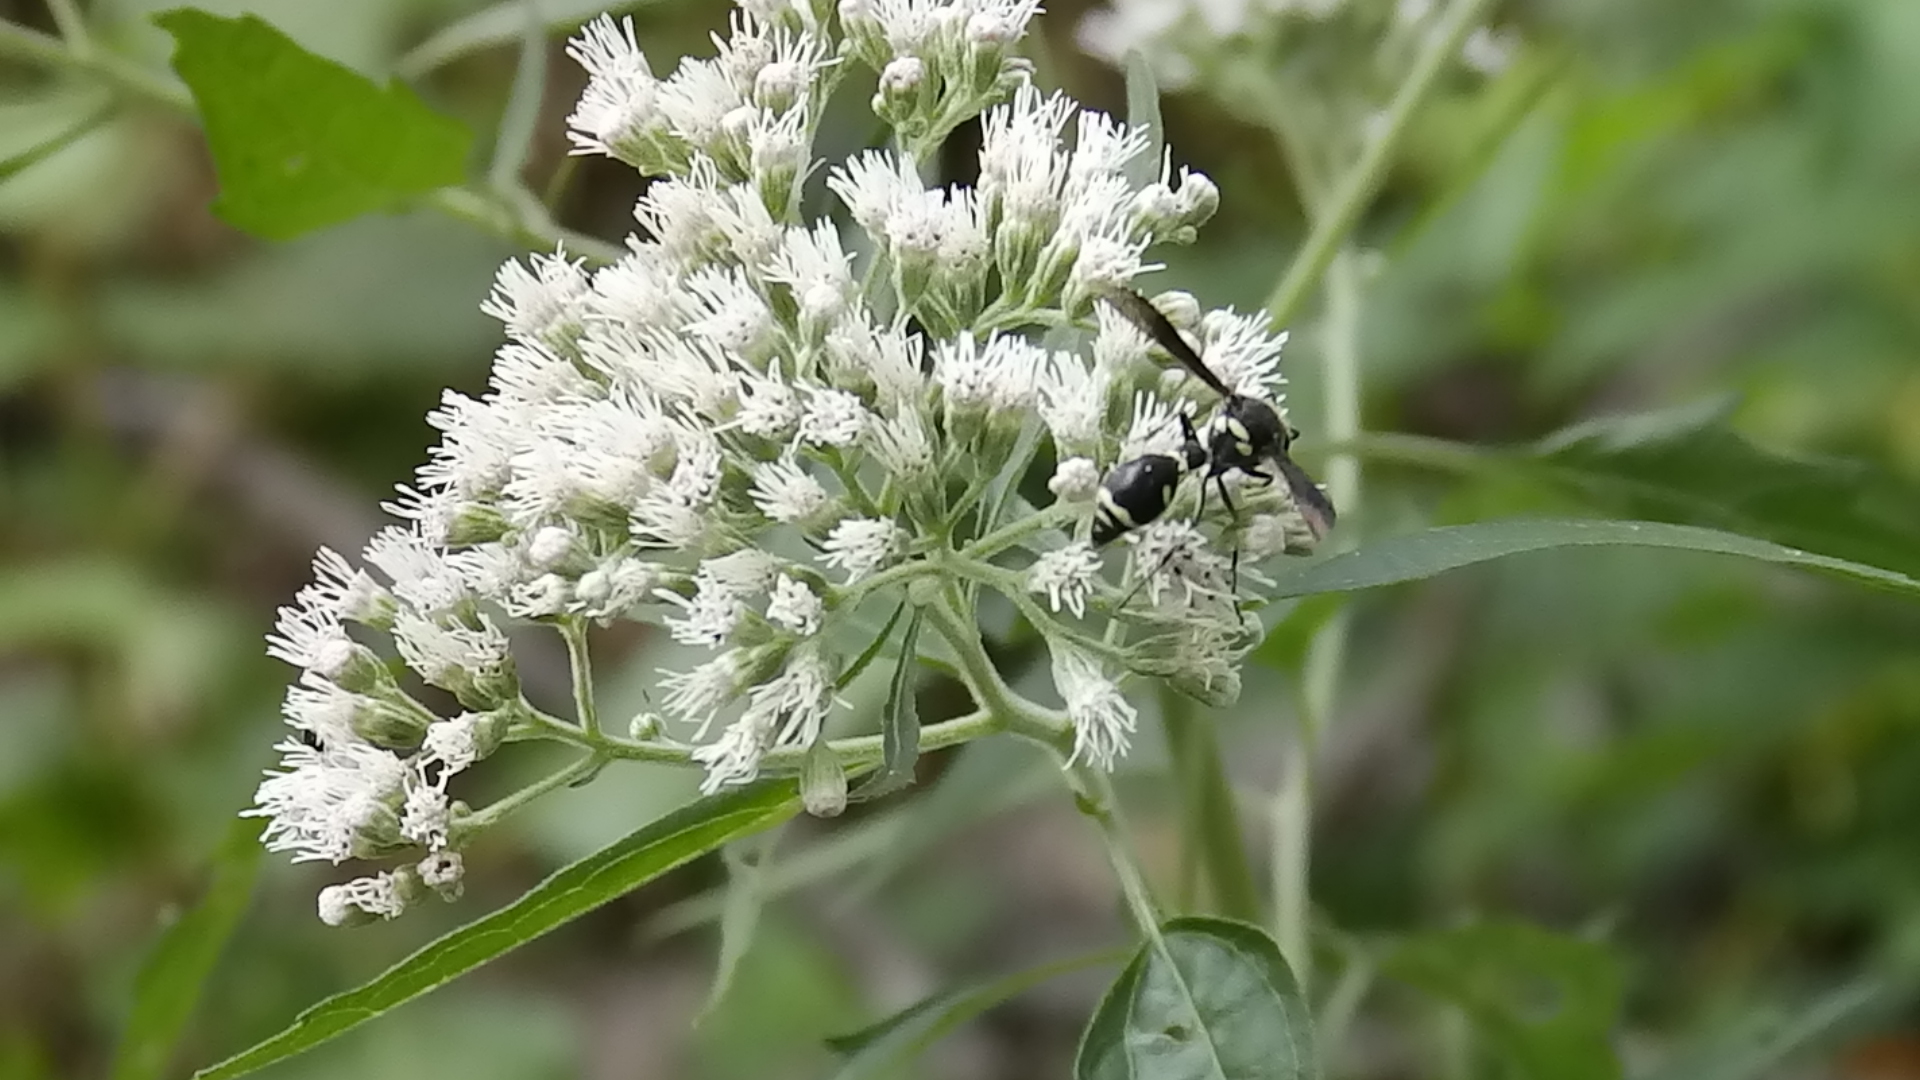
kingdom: Animalia
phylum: Arthropoda
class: Insecta
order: Hymenoptera
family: Vespidae
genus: Eumenes
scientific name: Eumenes fraternus
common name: Fraternal potter wasp
